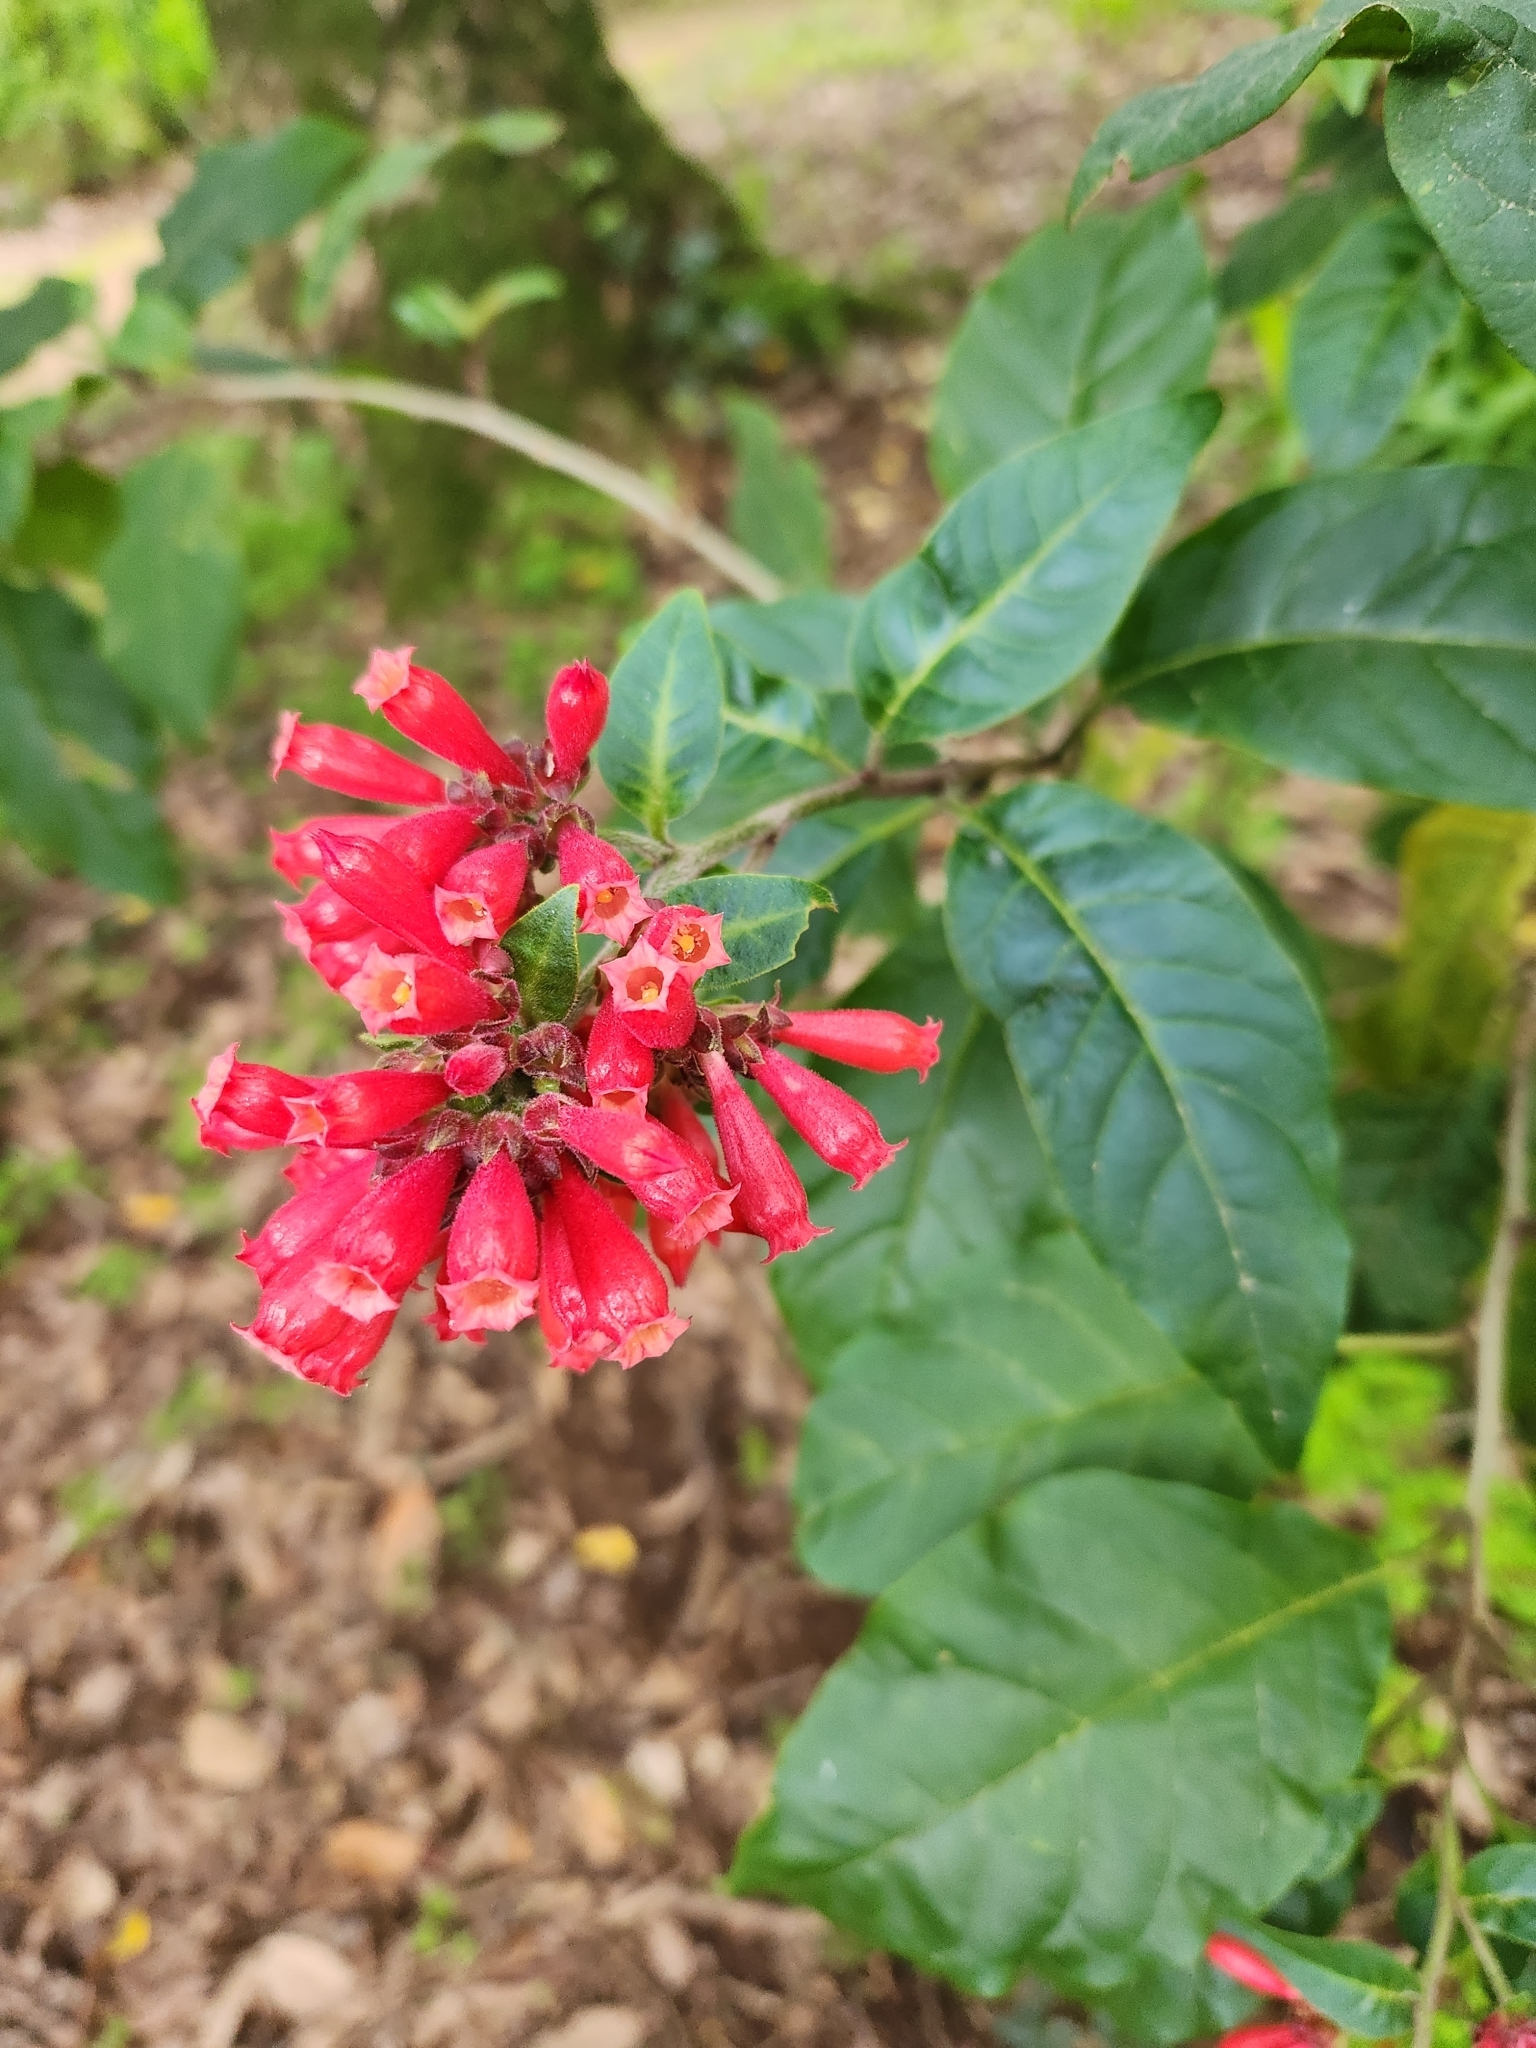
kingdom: Plantae
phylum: Tracheophyta
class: Magnoliopsida
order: Solanales
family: Solanaceae
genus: Cestrum
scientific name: Cestrum fasciculatum
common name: Early jessamine
